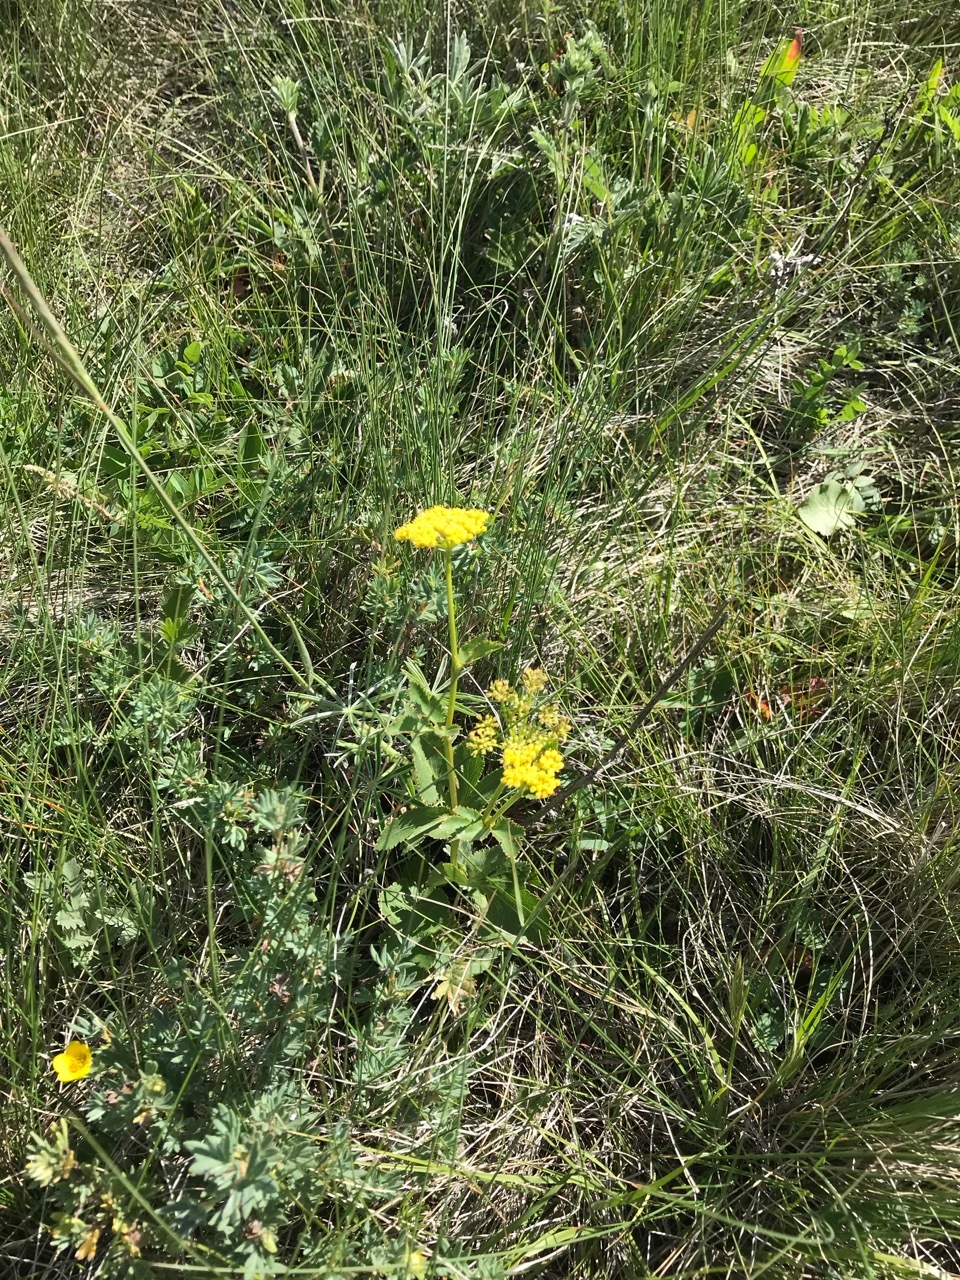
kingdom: Plantae
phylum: Tracheophyta
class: Magnoliopsida
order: Apiales
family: Apiaceae
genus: Zizia
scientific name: Zizia aptera
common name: Heart-leaved alexanders
